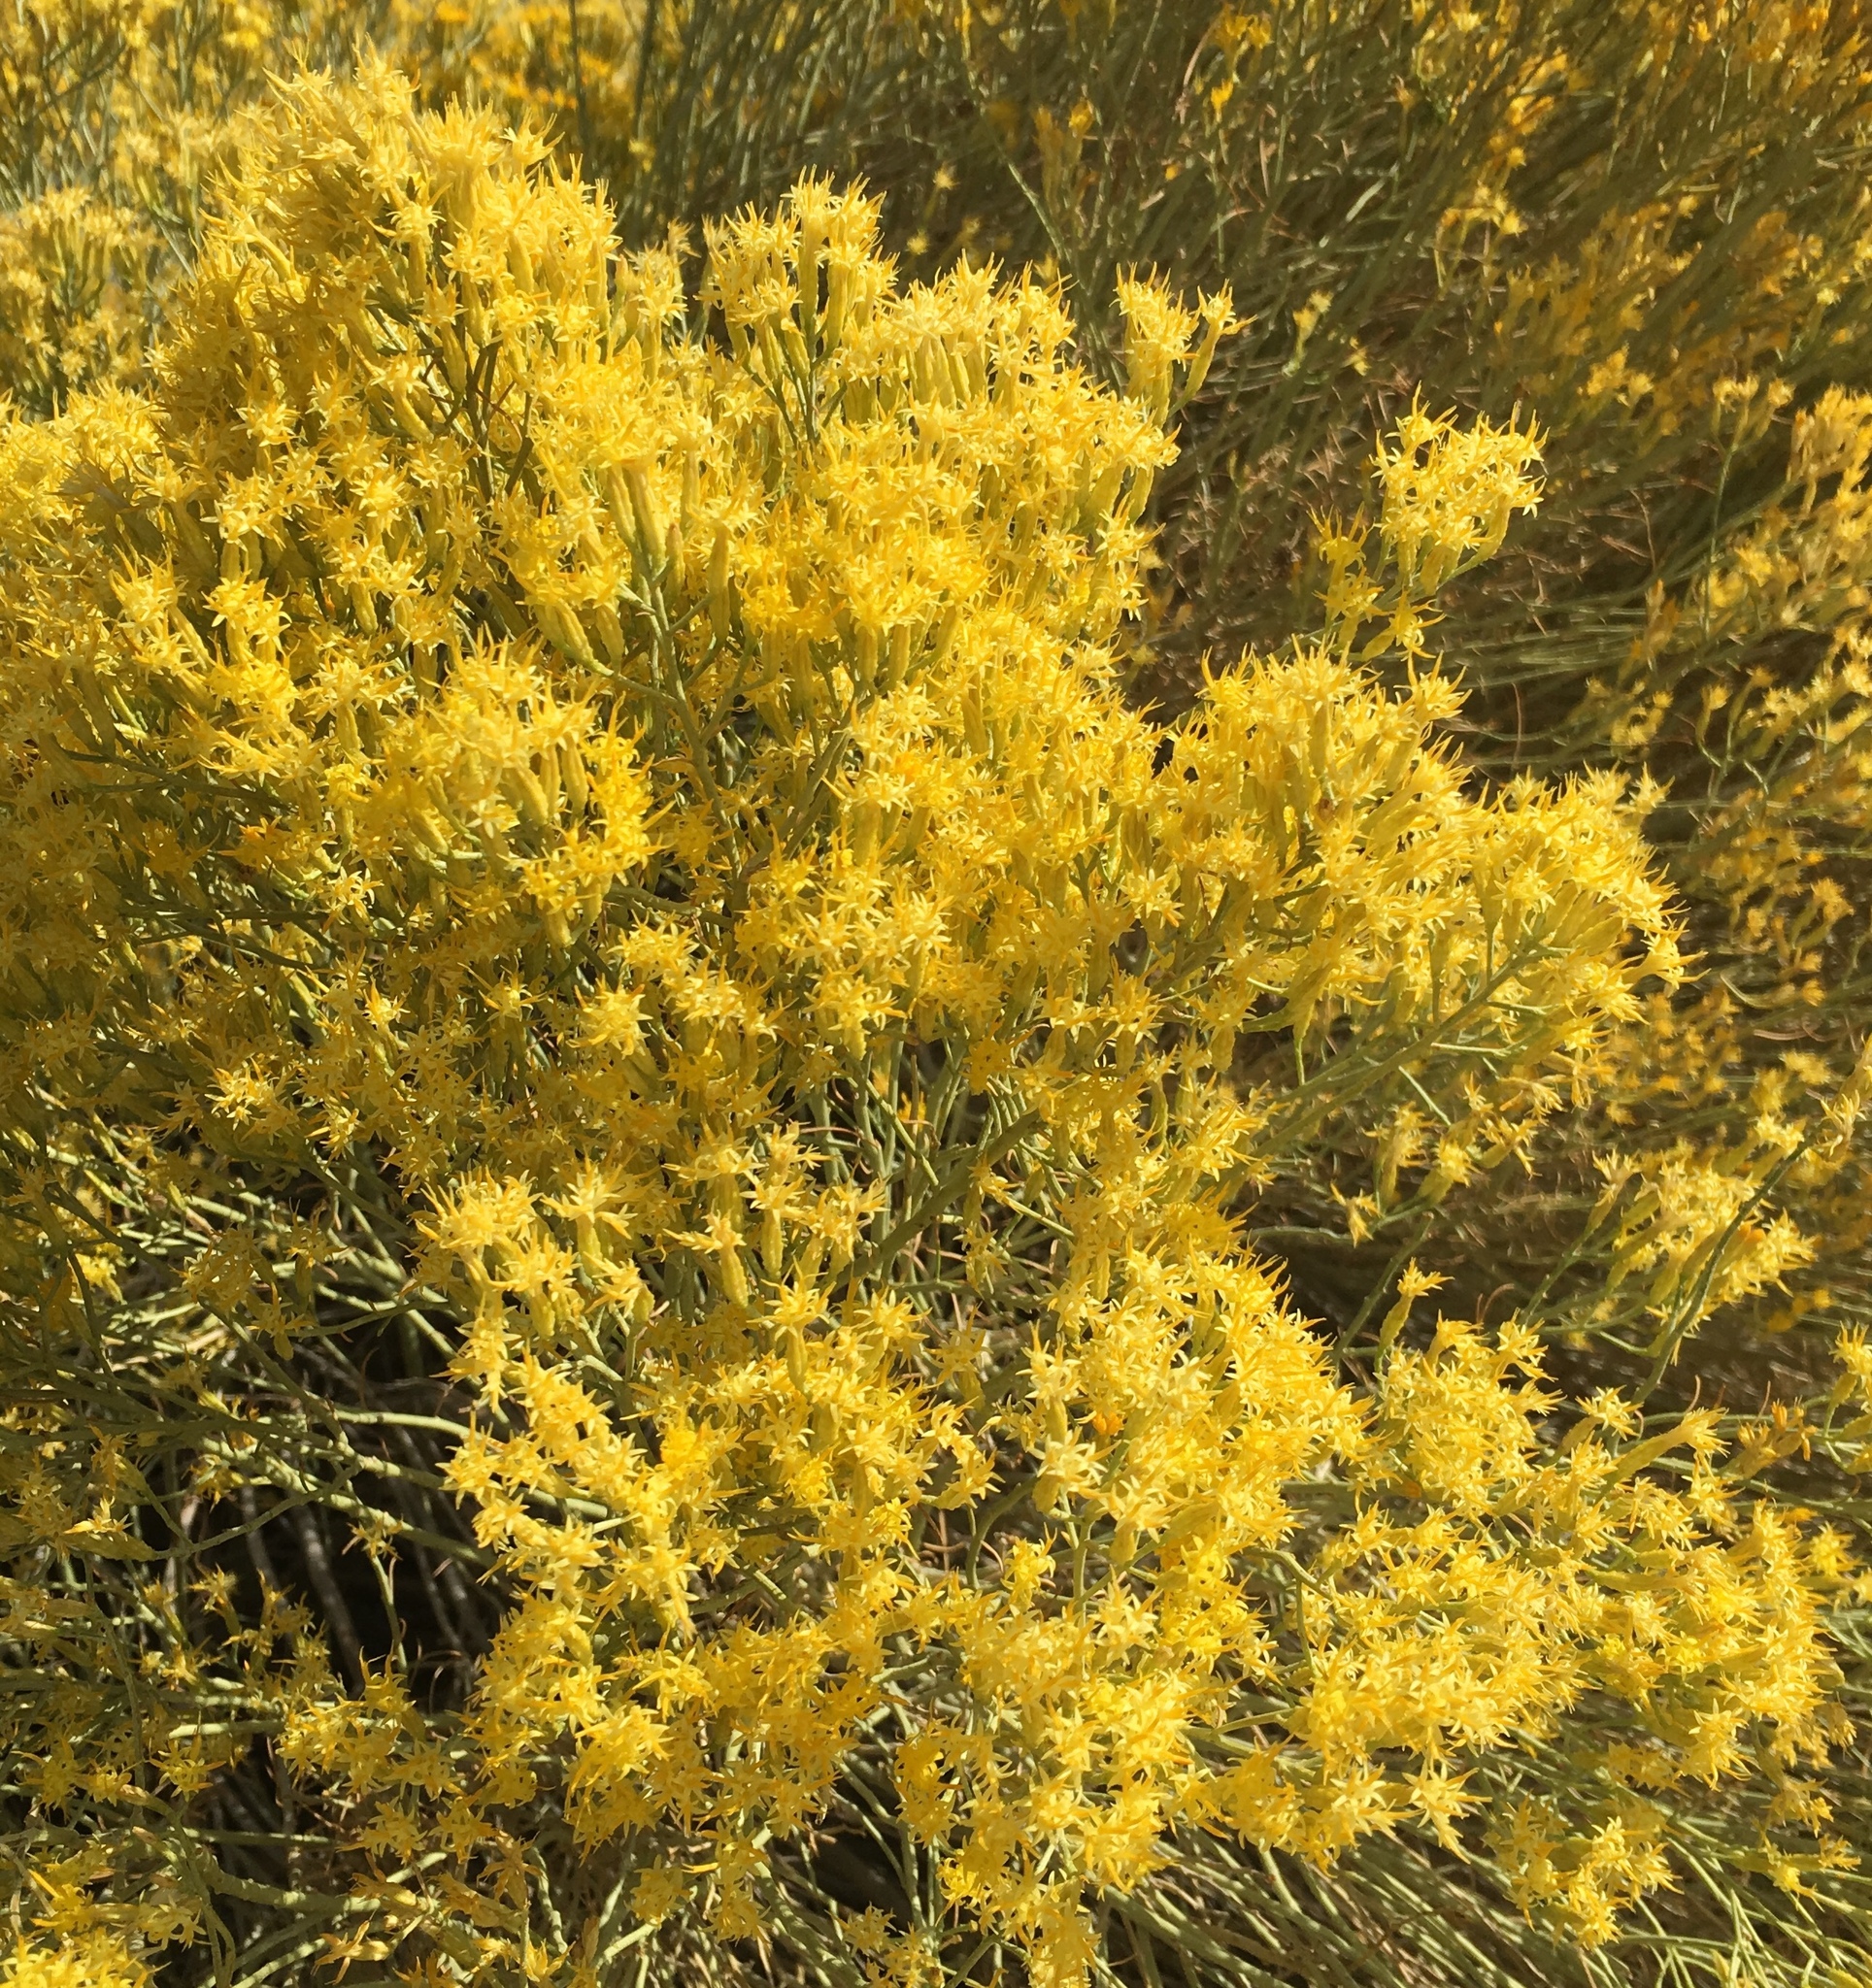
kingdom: Plantae
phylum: Tracheophyta
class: Magnoliopsida
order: Asterales
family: Asteraceae
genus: Ericameria
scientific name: Ericameria nauseosa
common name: Rubber rabbitbrush
